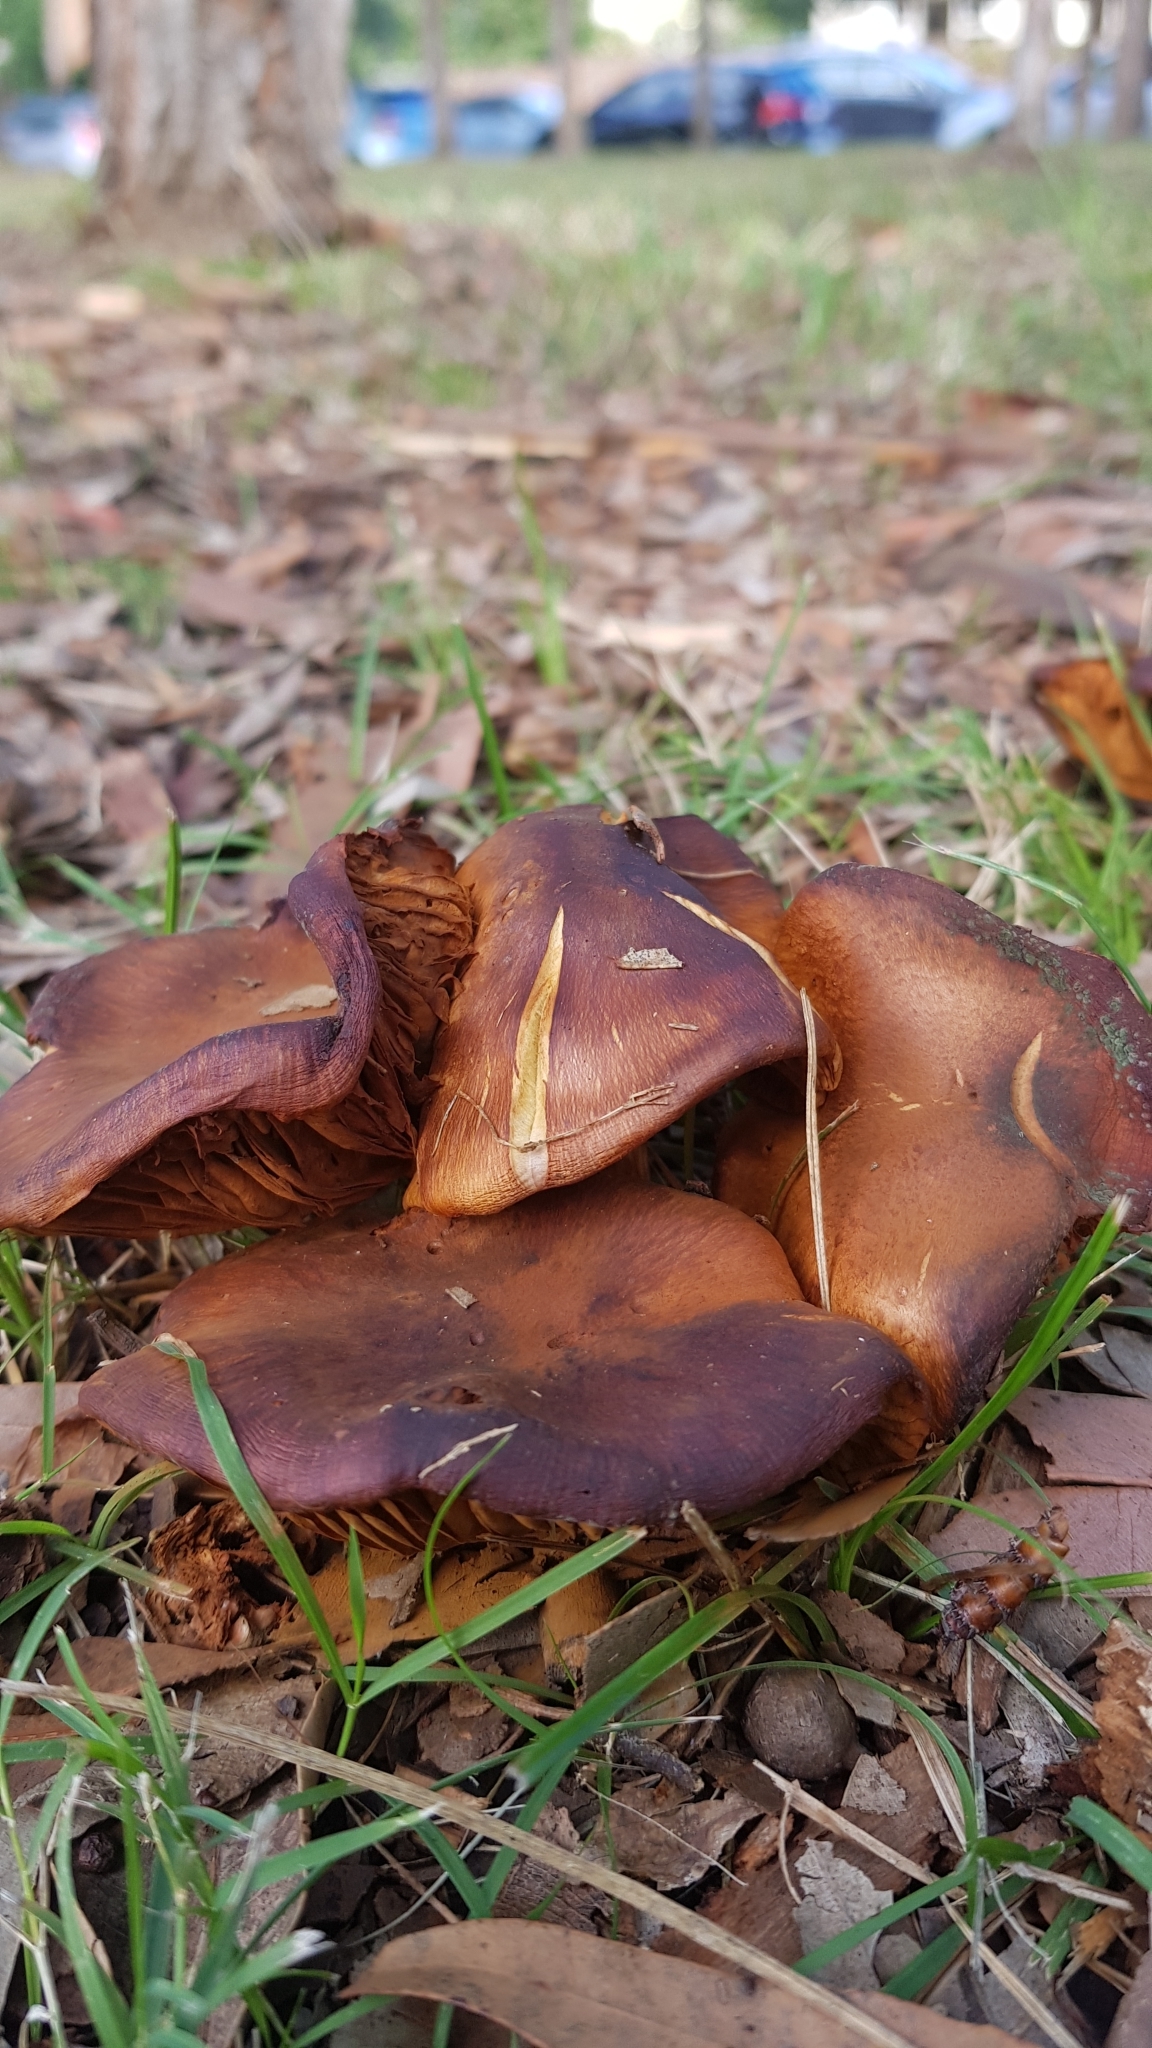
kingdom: Fungi
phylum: Basidiomycota
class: Agaricomycetes
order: Agaricales
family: Hymenogastraceae
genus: Gymnopilus
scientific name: Gymnopilus junonius
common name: Spectacular rustgill
